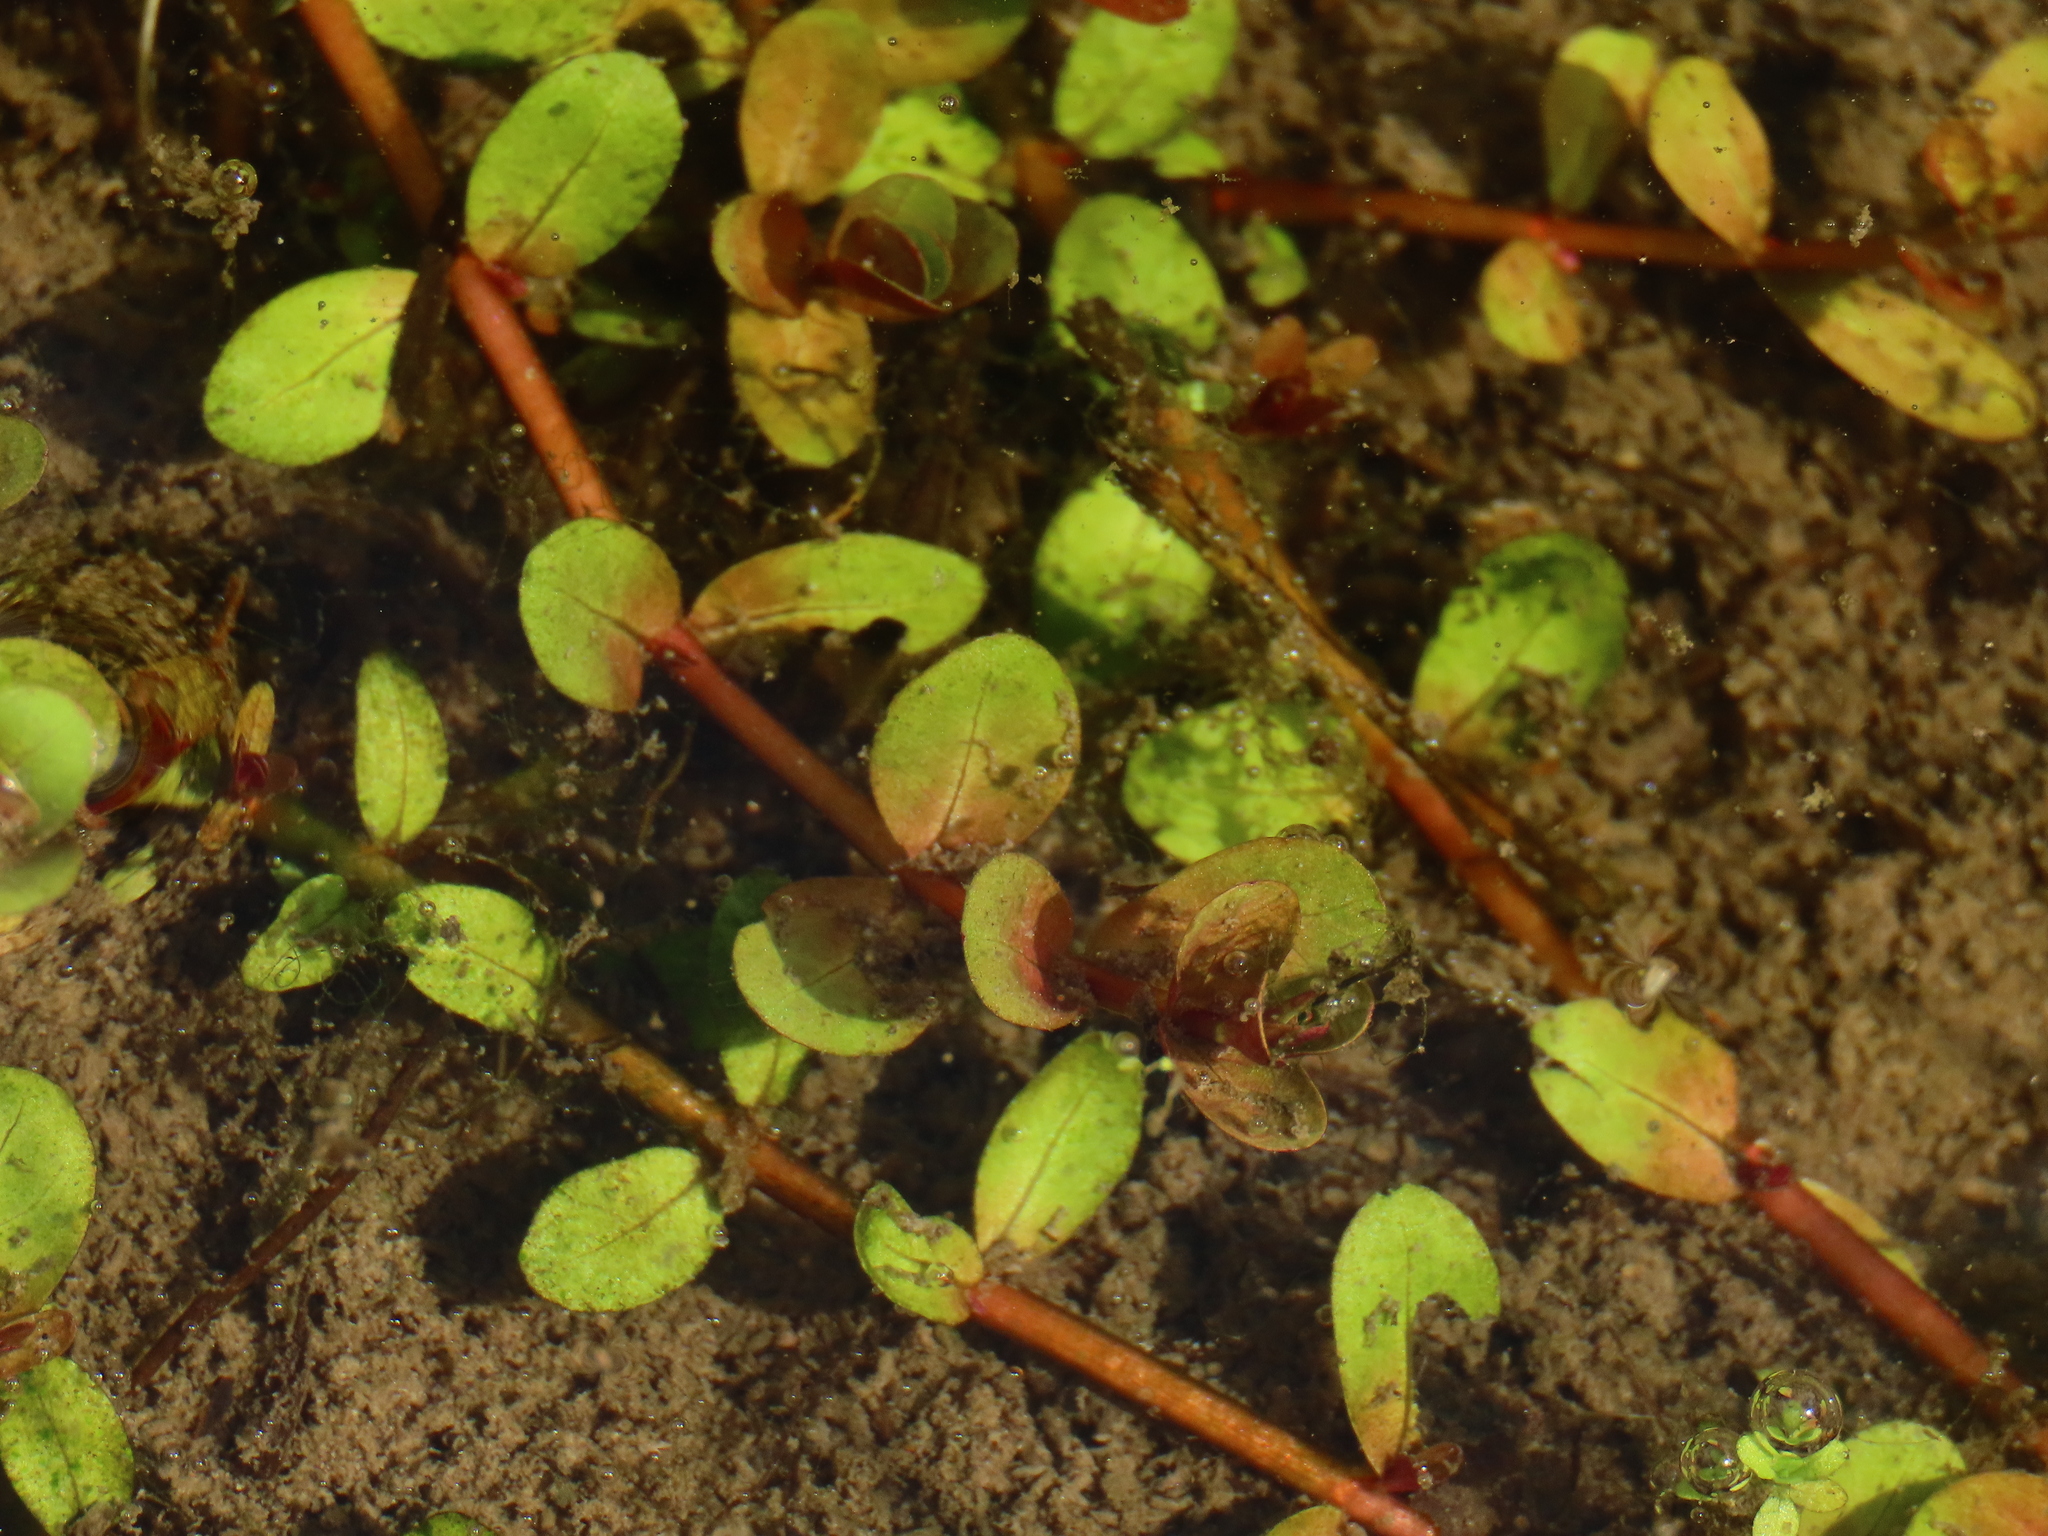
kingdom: Plantae
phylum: Tracheophyta
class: Magnoliopsida
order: Myrtales
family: Lythraceae
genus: Rotala
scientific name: Rotala rotundifolia
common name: Roundleaf toothcup
